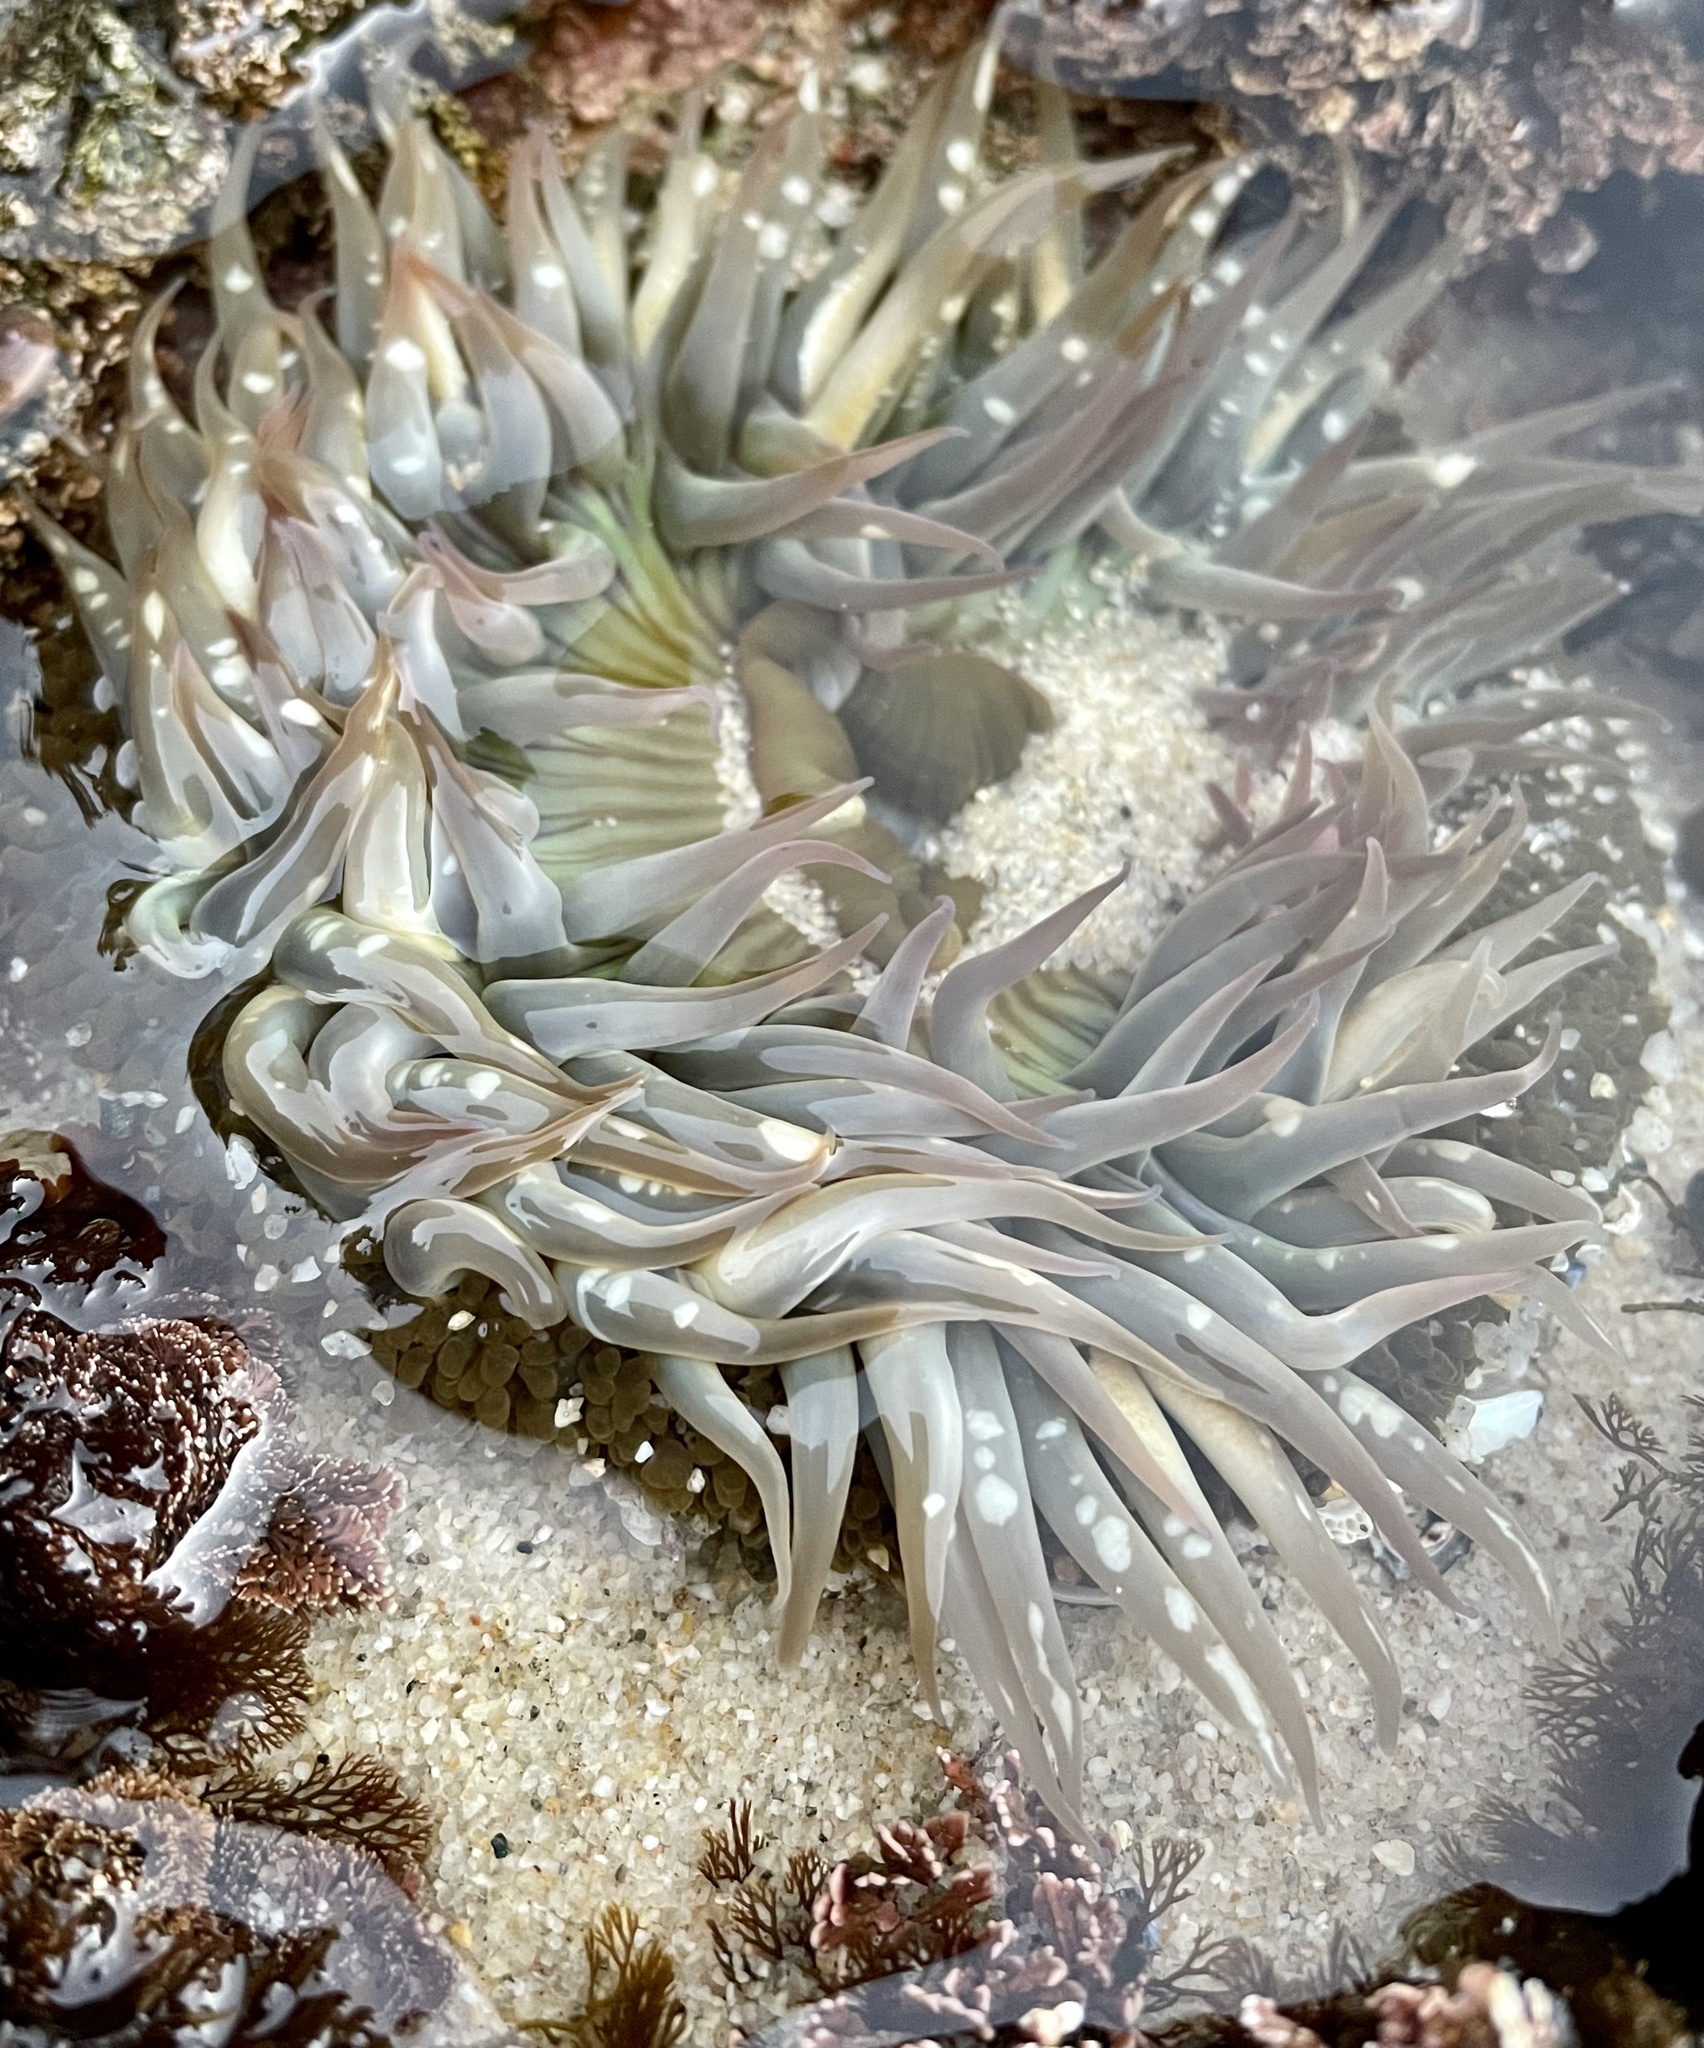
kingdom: Animalia
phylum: Cnidaria
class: Anthozoa
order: Actiniaria
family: Actiniidae
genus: Anthopleura
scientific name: Anthopleura sola
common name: Sun anemone
